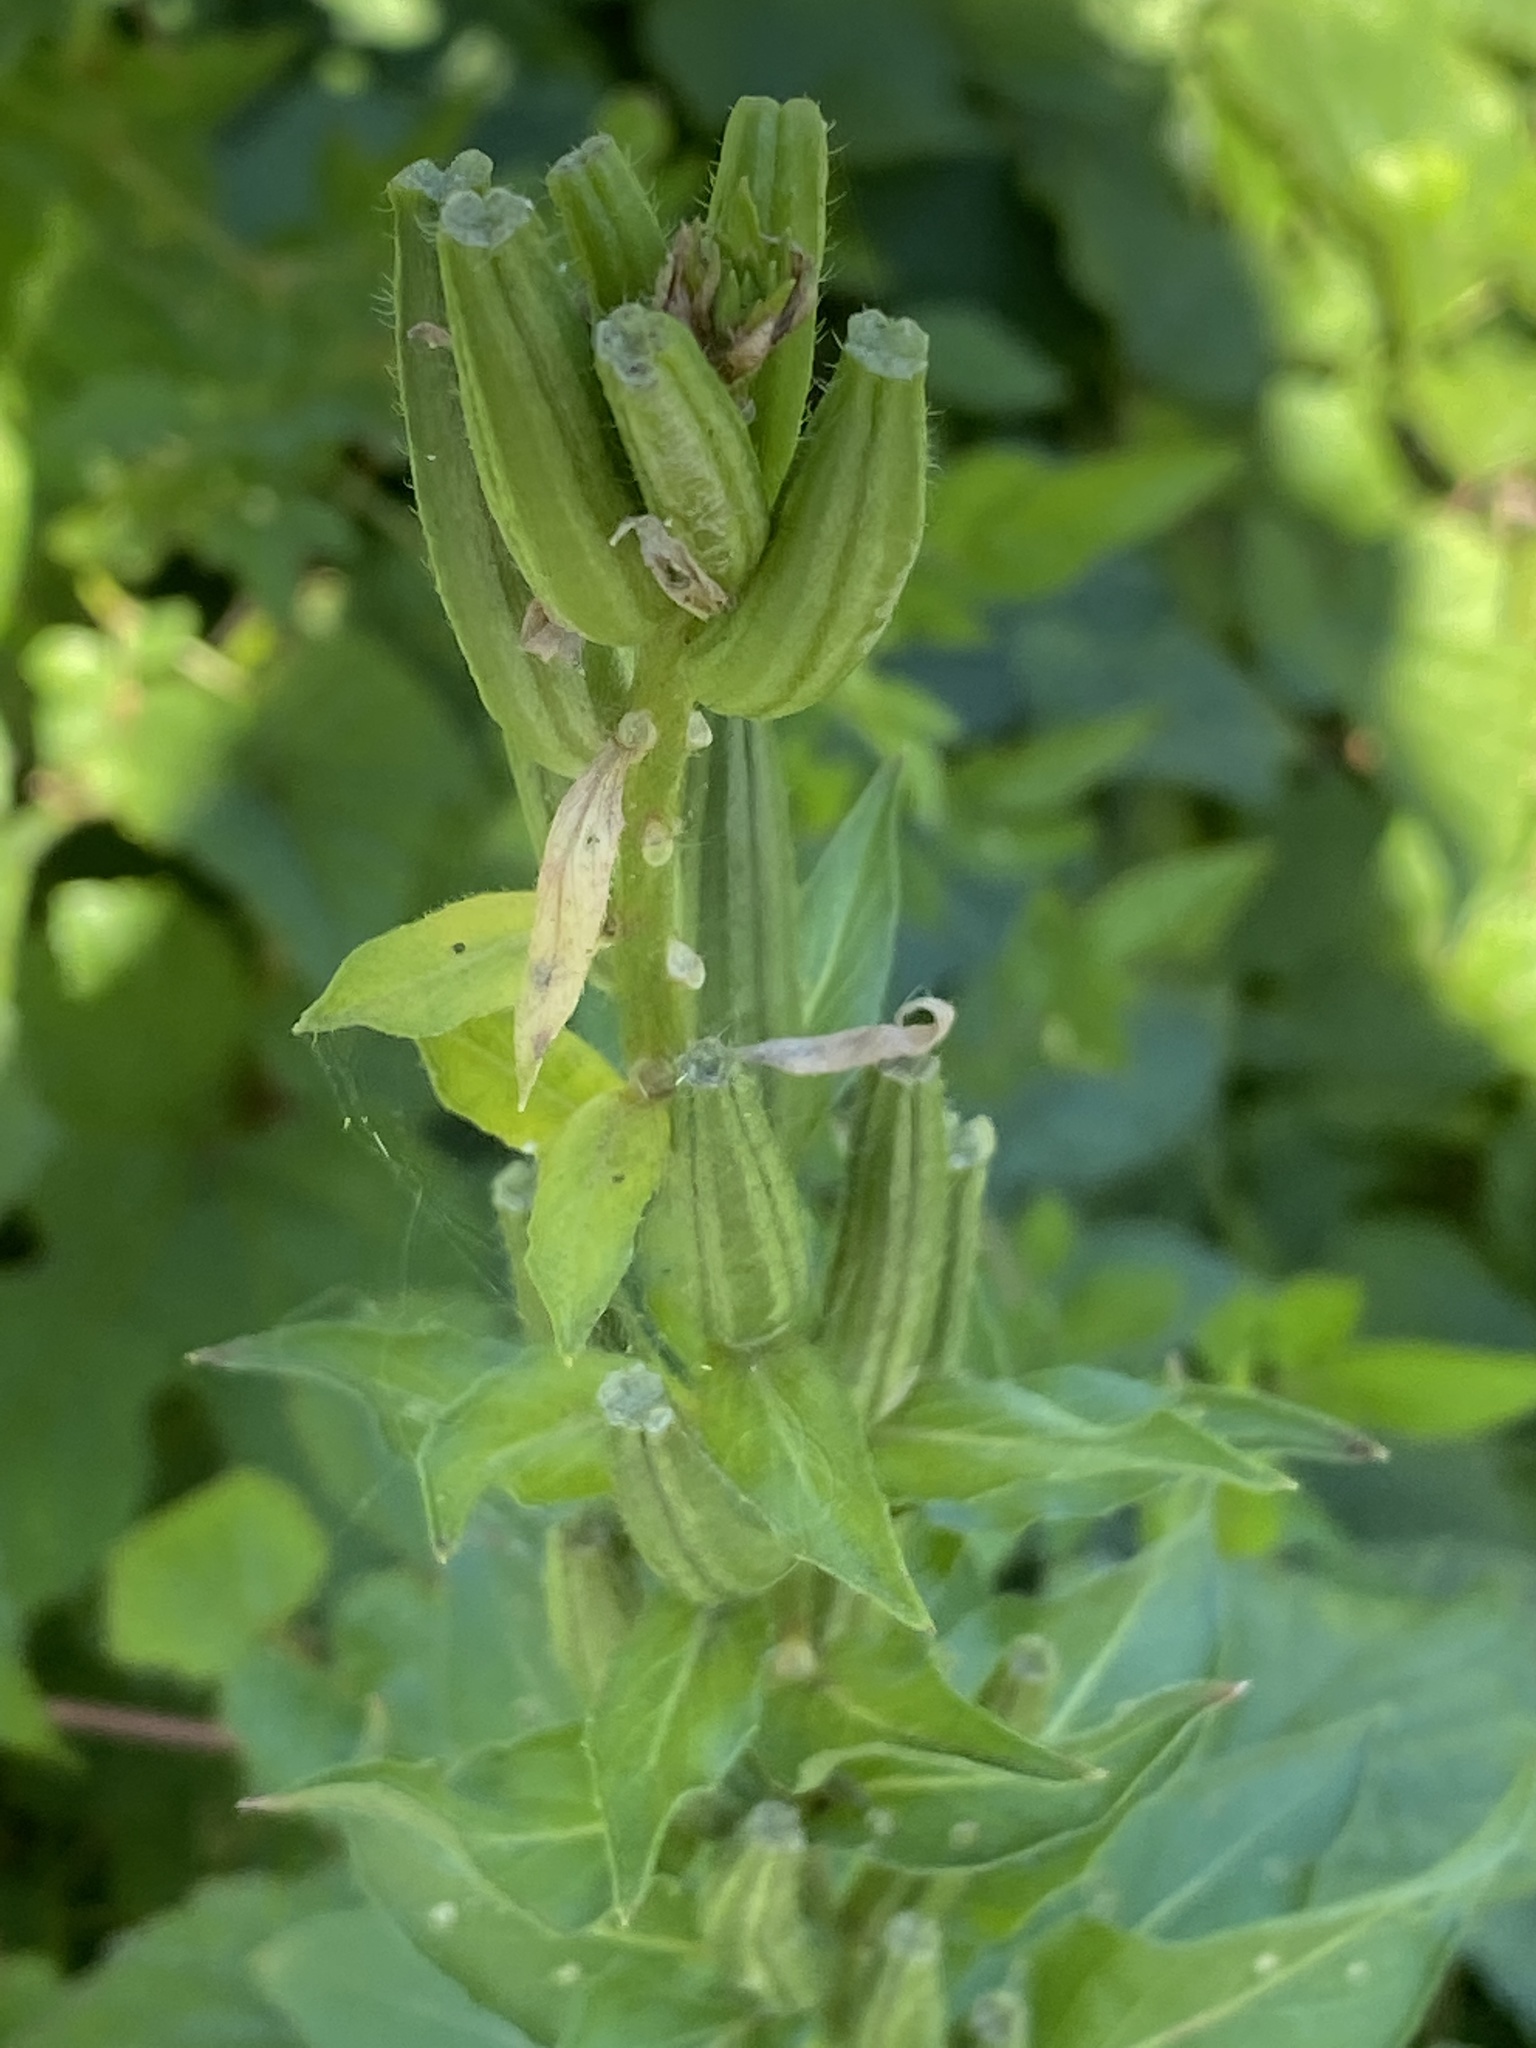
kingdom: Plantae
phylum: Tracheophyta
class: Magnoliopsida
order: Myrtales
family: Onagraceae
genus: Oenothera
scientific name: Oenothera biennis
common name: Common evening-primrose
